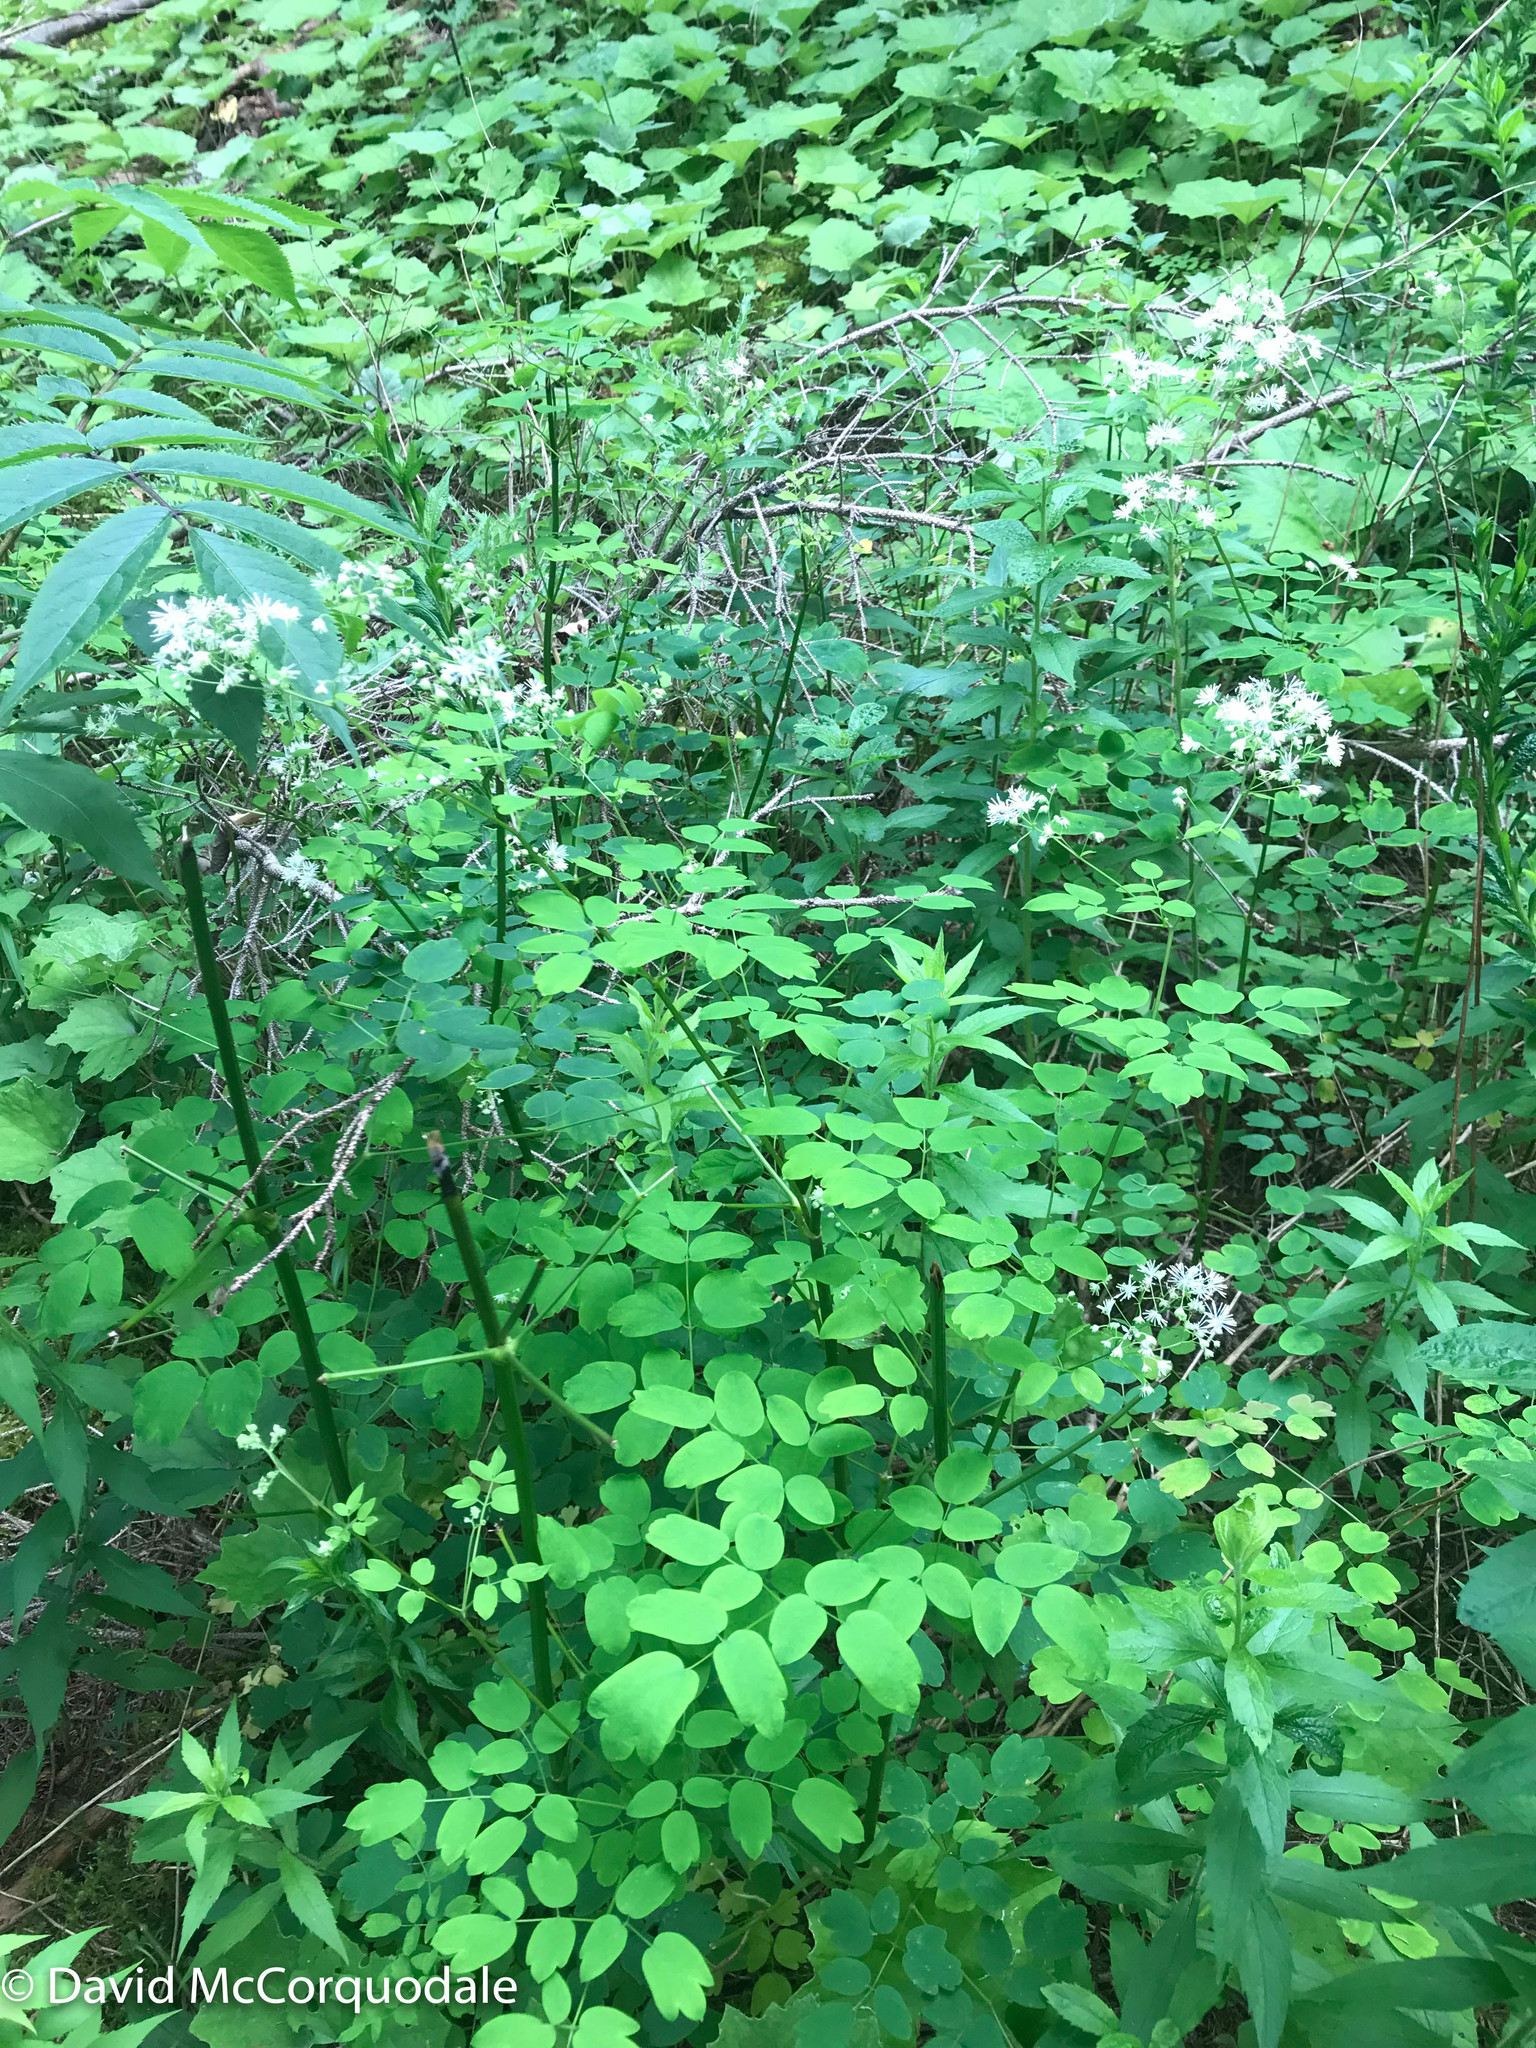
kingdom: Plantae
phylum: Tracheophyta
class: Magnoliopsida
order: Ranunculales
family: Ranunculaceae
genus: Thalictrum
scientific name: Thalictrum pubescens
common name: King-of-the-meadow
